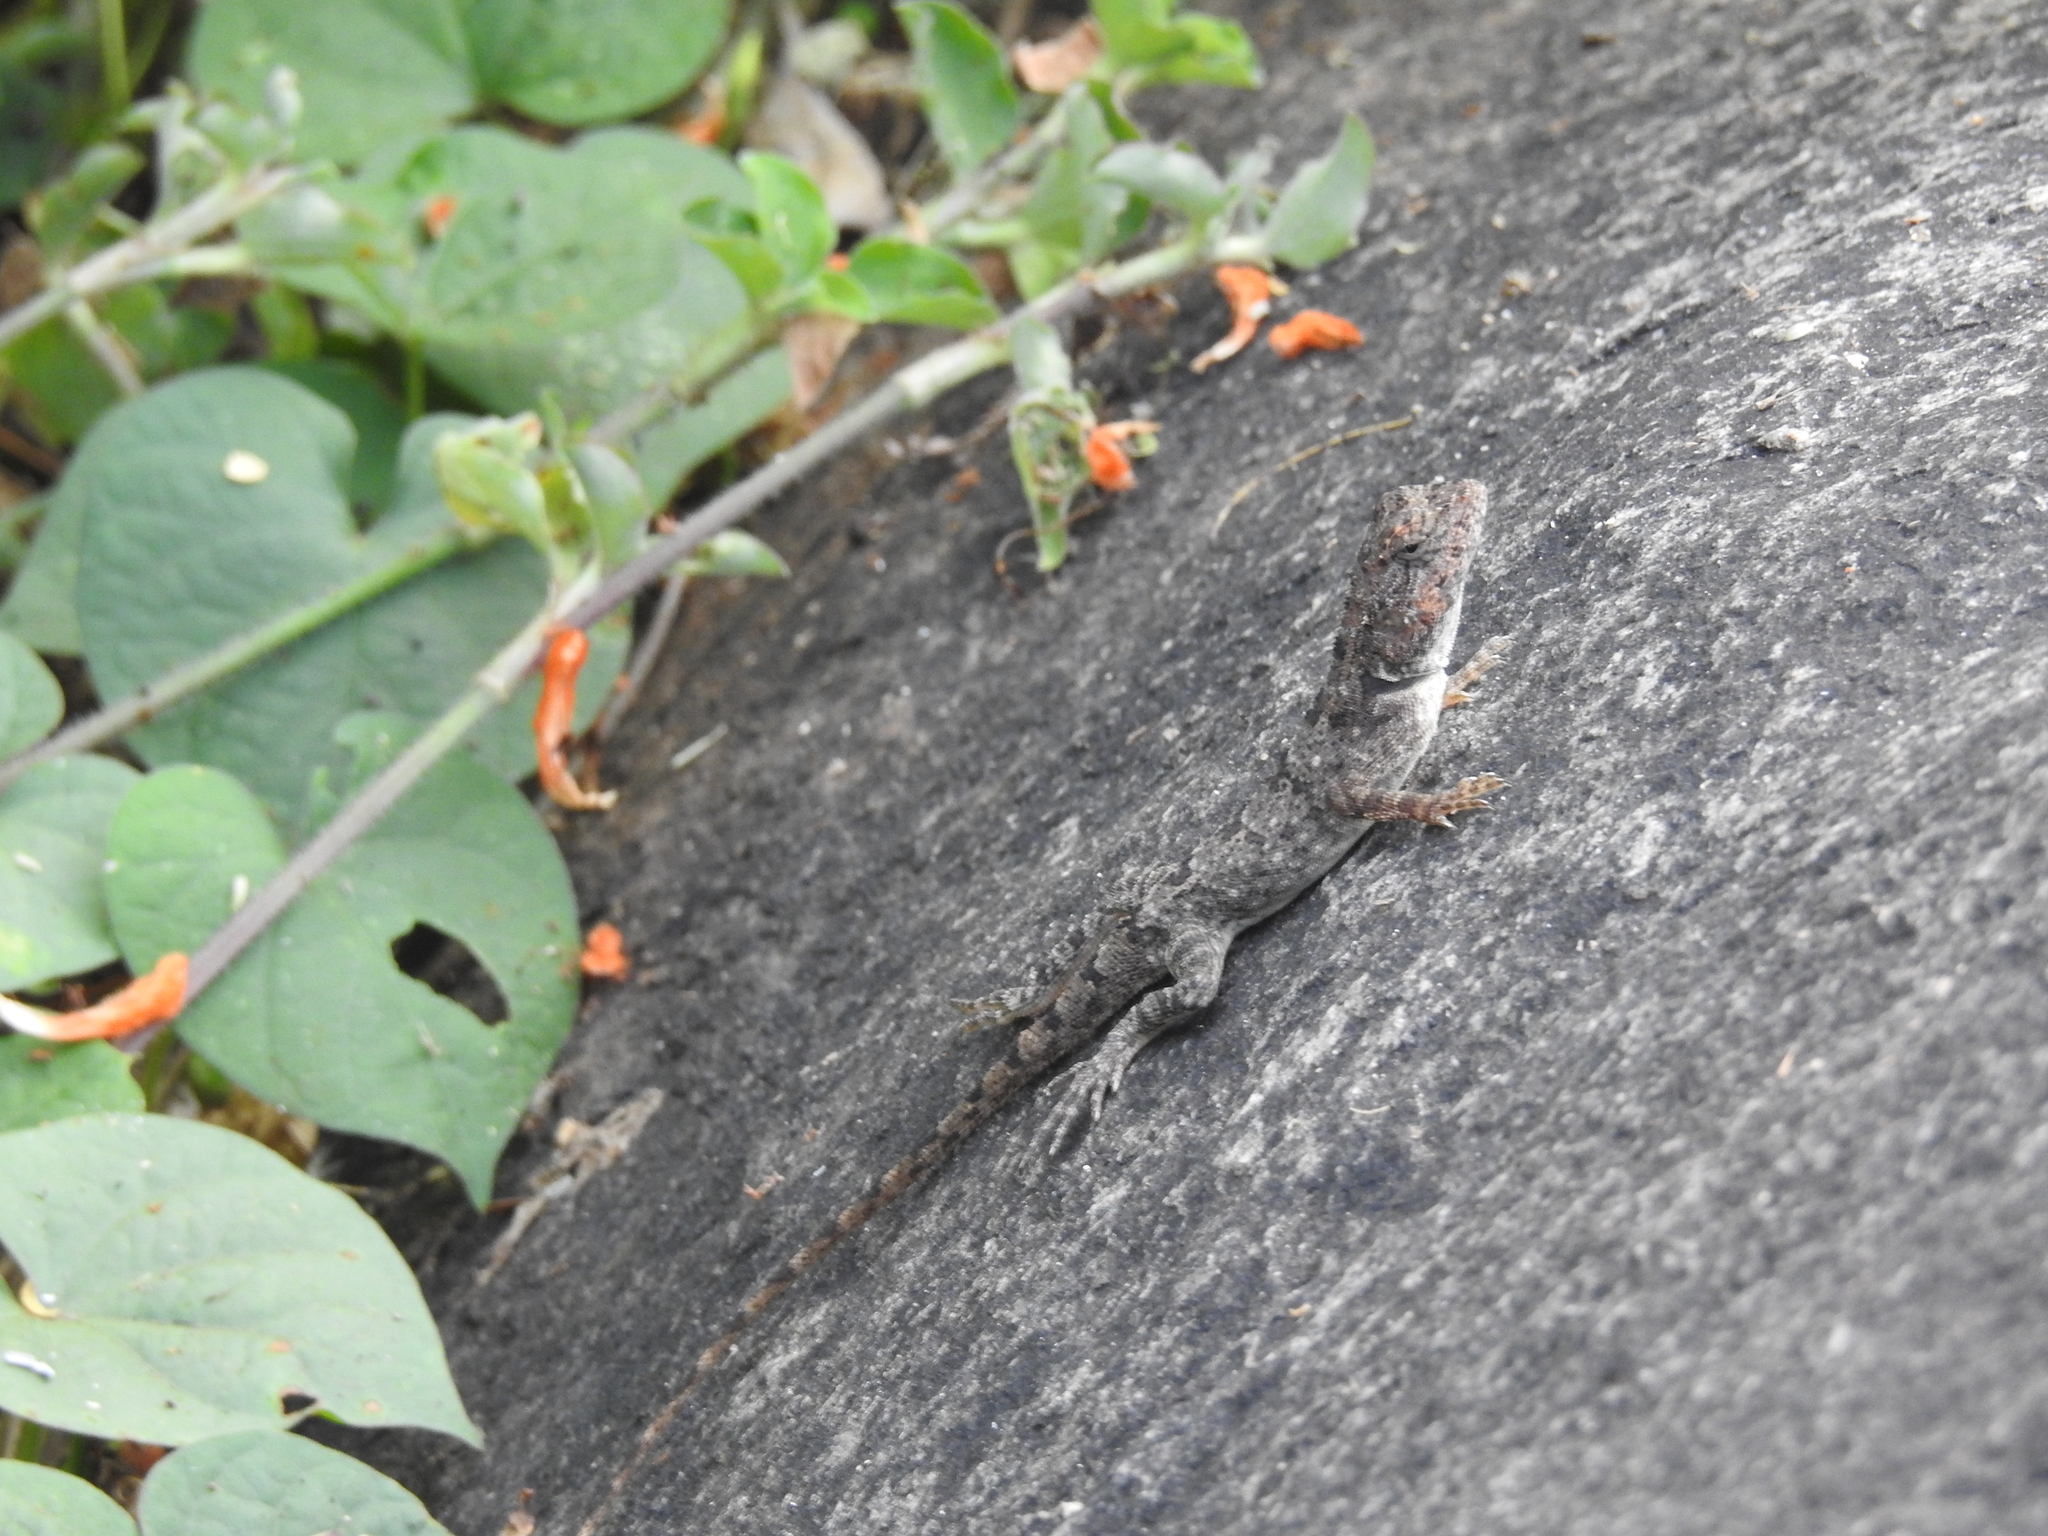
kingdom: Animalia
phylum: Chordata
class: Squamata
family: Agamidae
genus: Psammophilus
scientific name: Psammophilus dorsalis
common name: South indian rock agama
